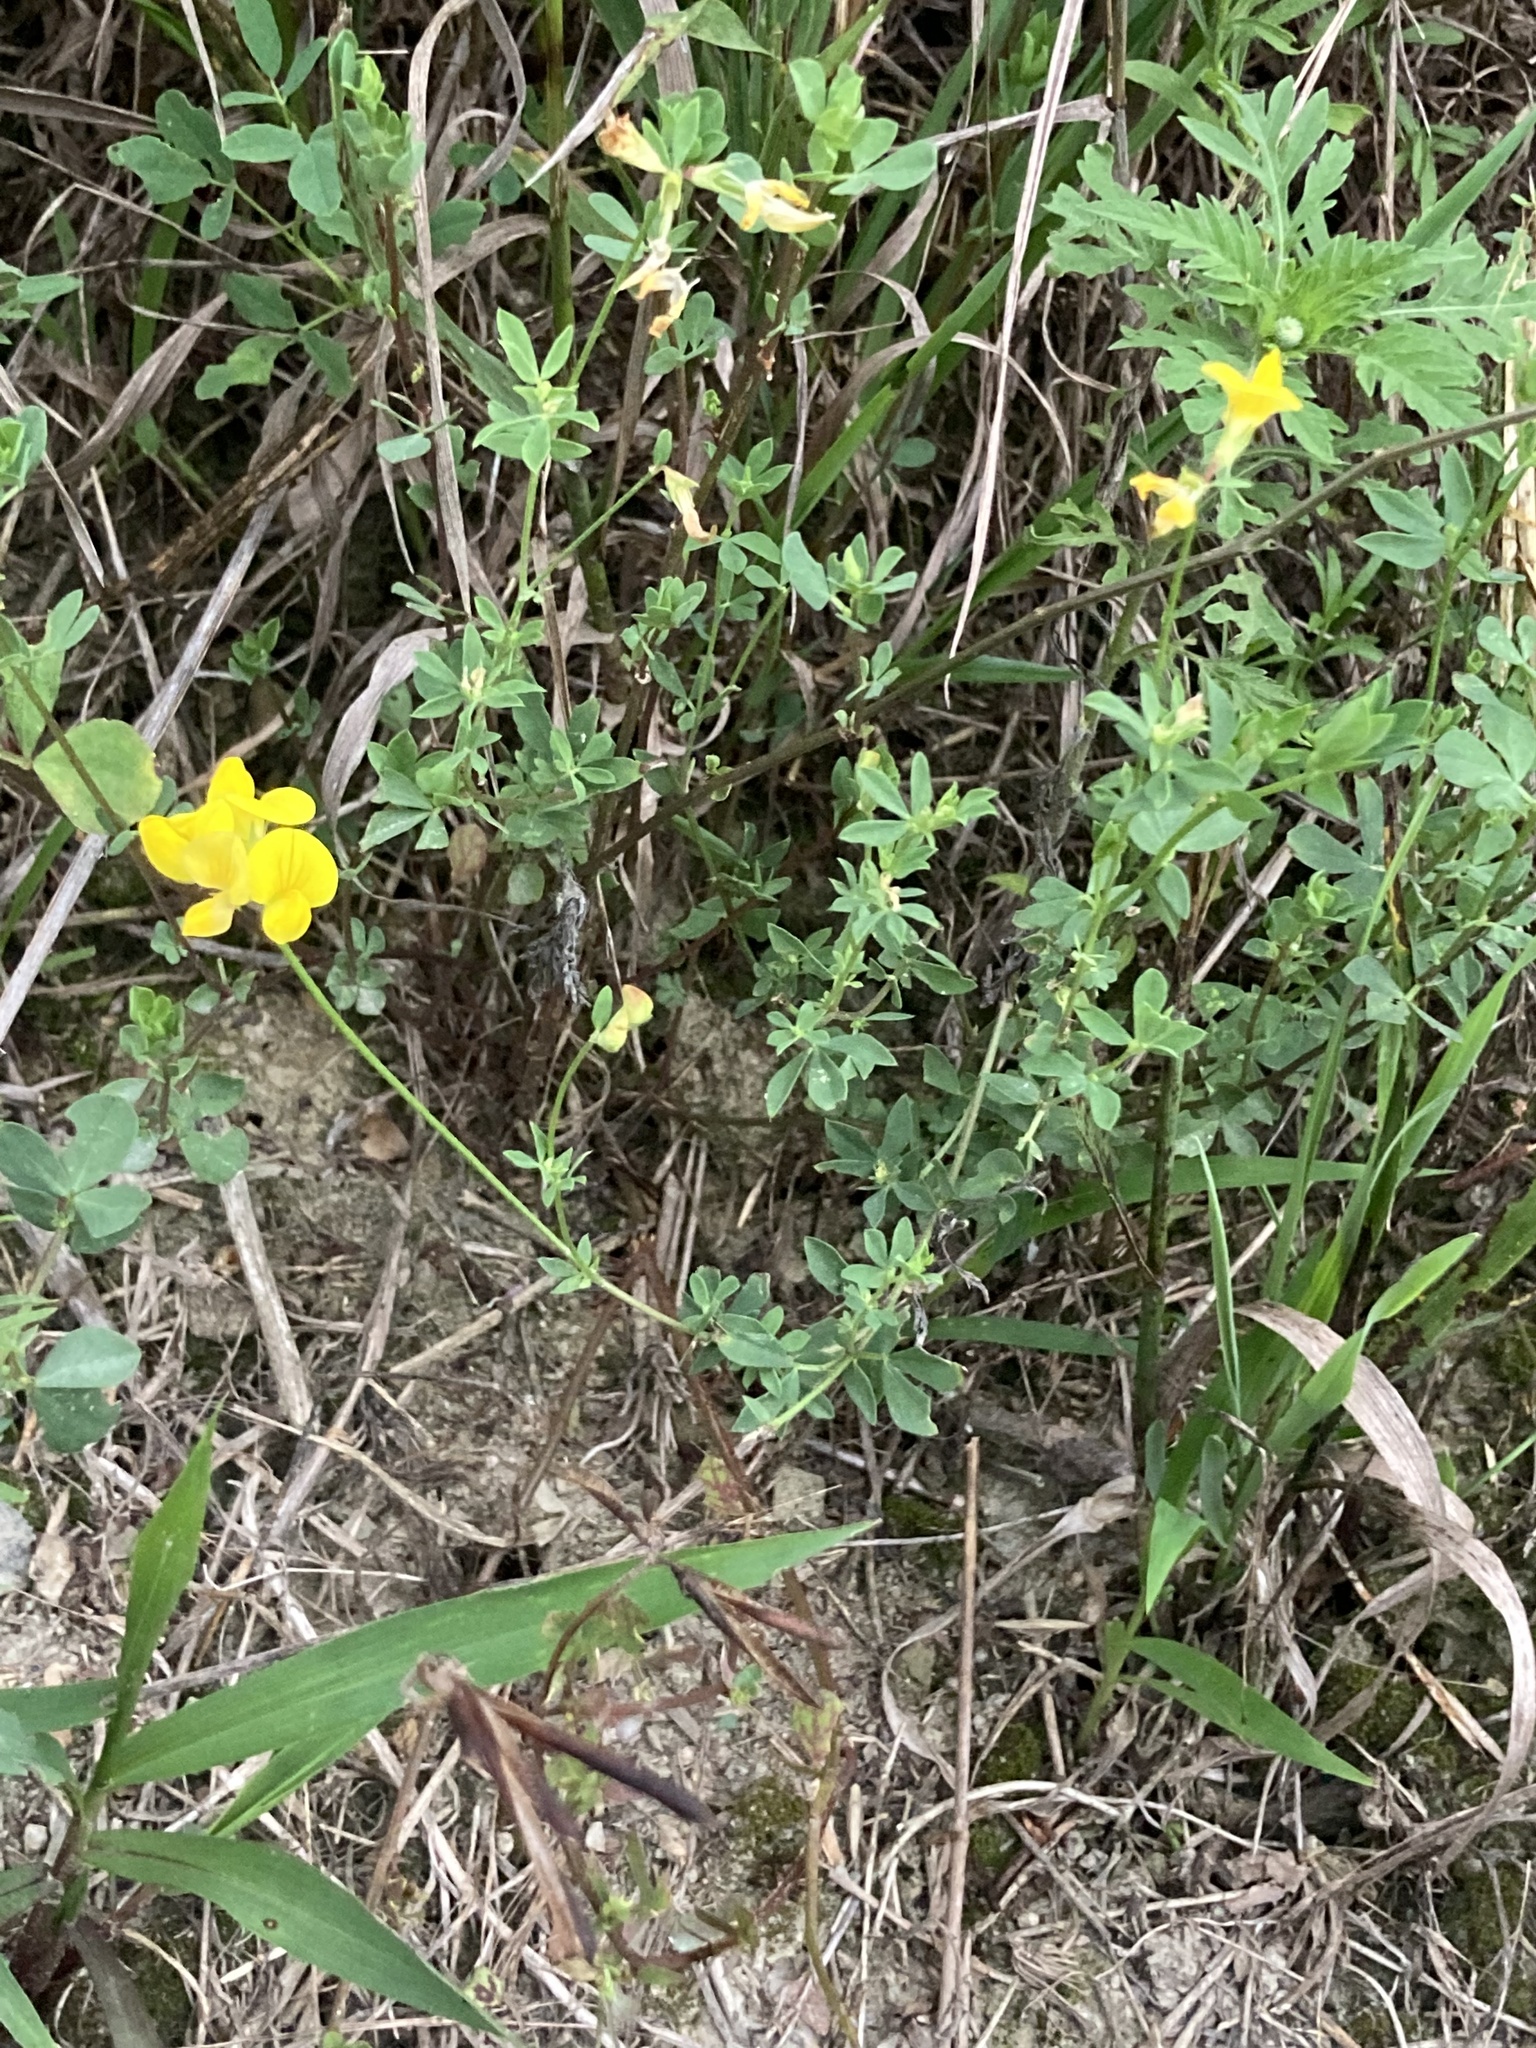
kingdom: Plantae
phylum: Tracheophyta
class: Magnoliopsida
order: Fabales
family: Fabaceae
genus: Lotus
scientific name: Lotus corniculatus
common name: Common bird's-foot-trefoil
